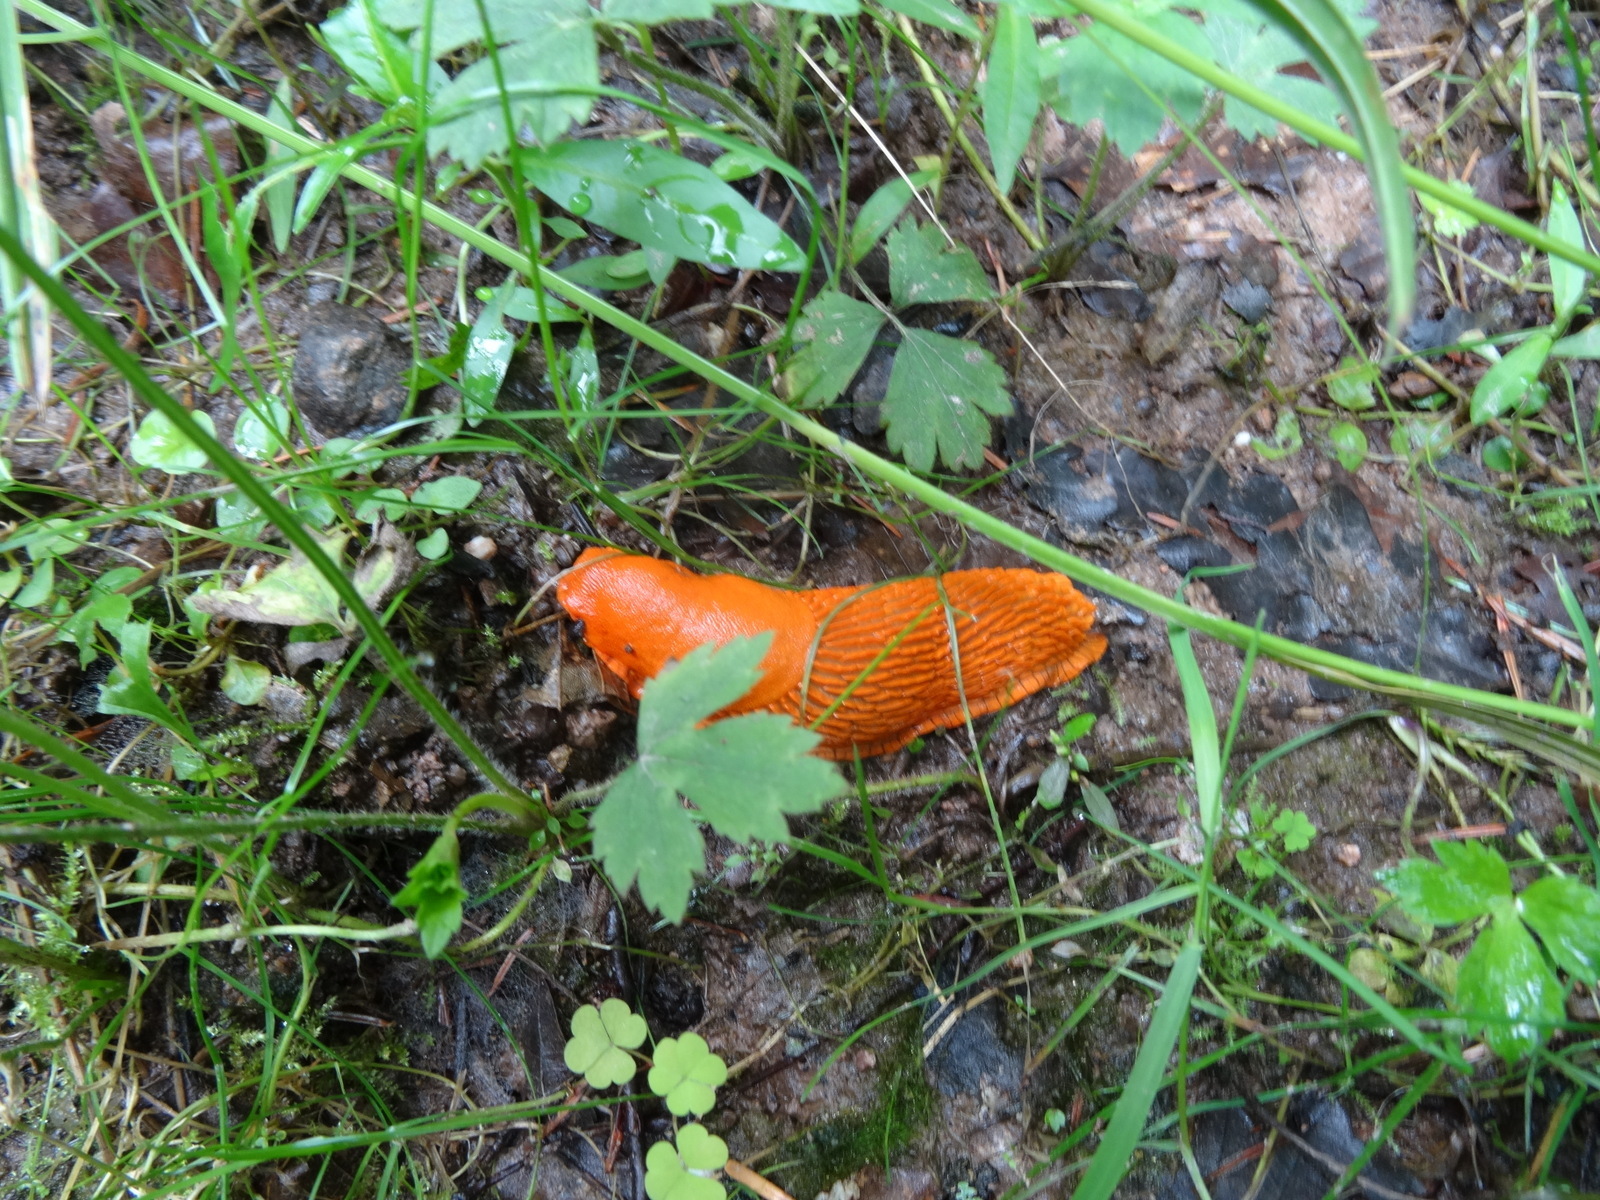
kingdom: Animalia
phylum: Mollusca
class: Gastropoda
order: Stylommatophora
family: Arionidae
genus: Arion
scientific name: Arion rufus
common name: Chocolate arion
